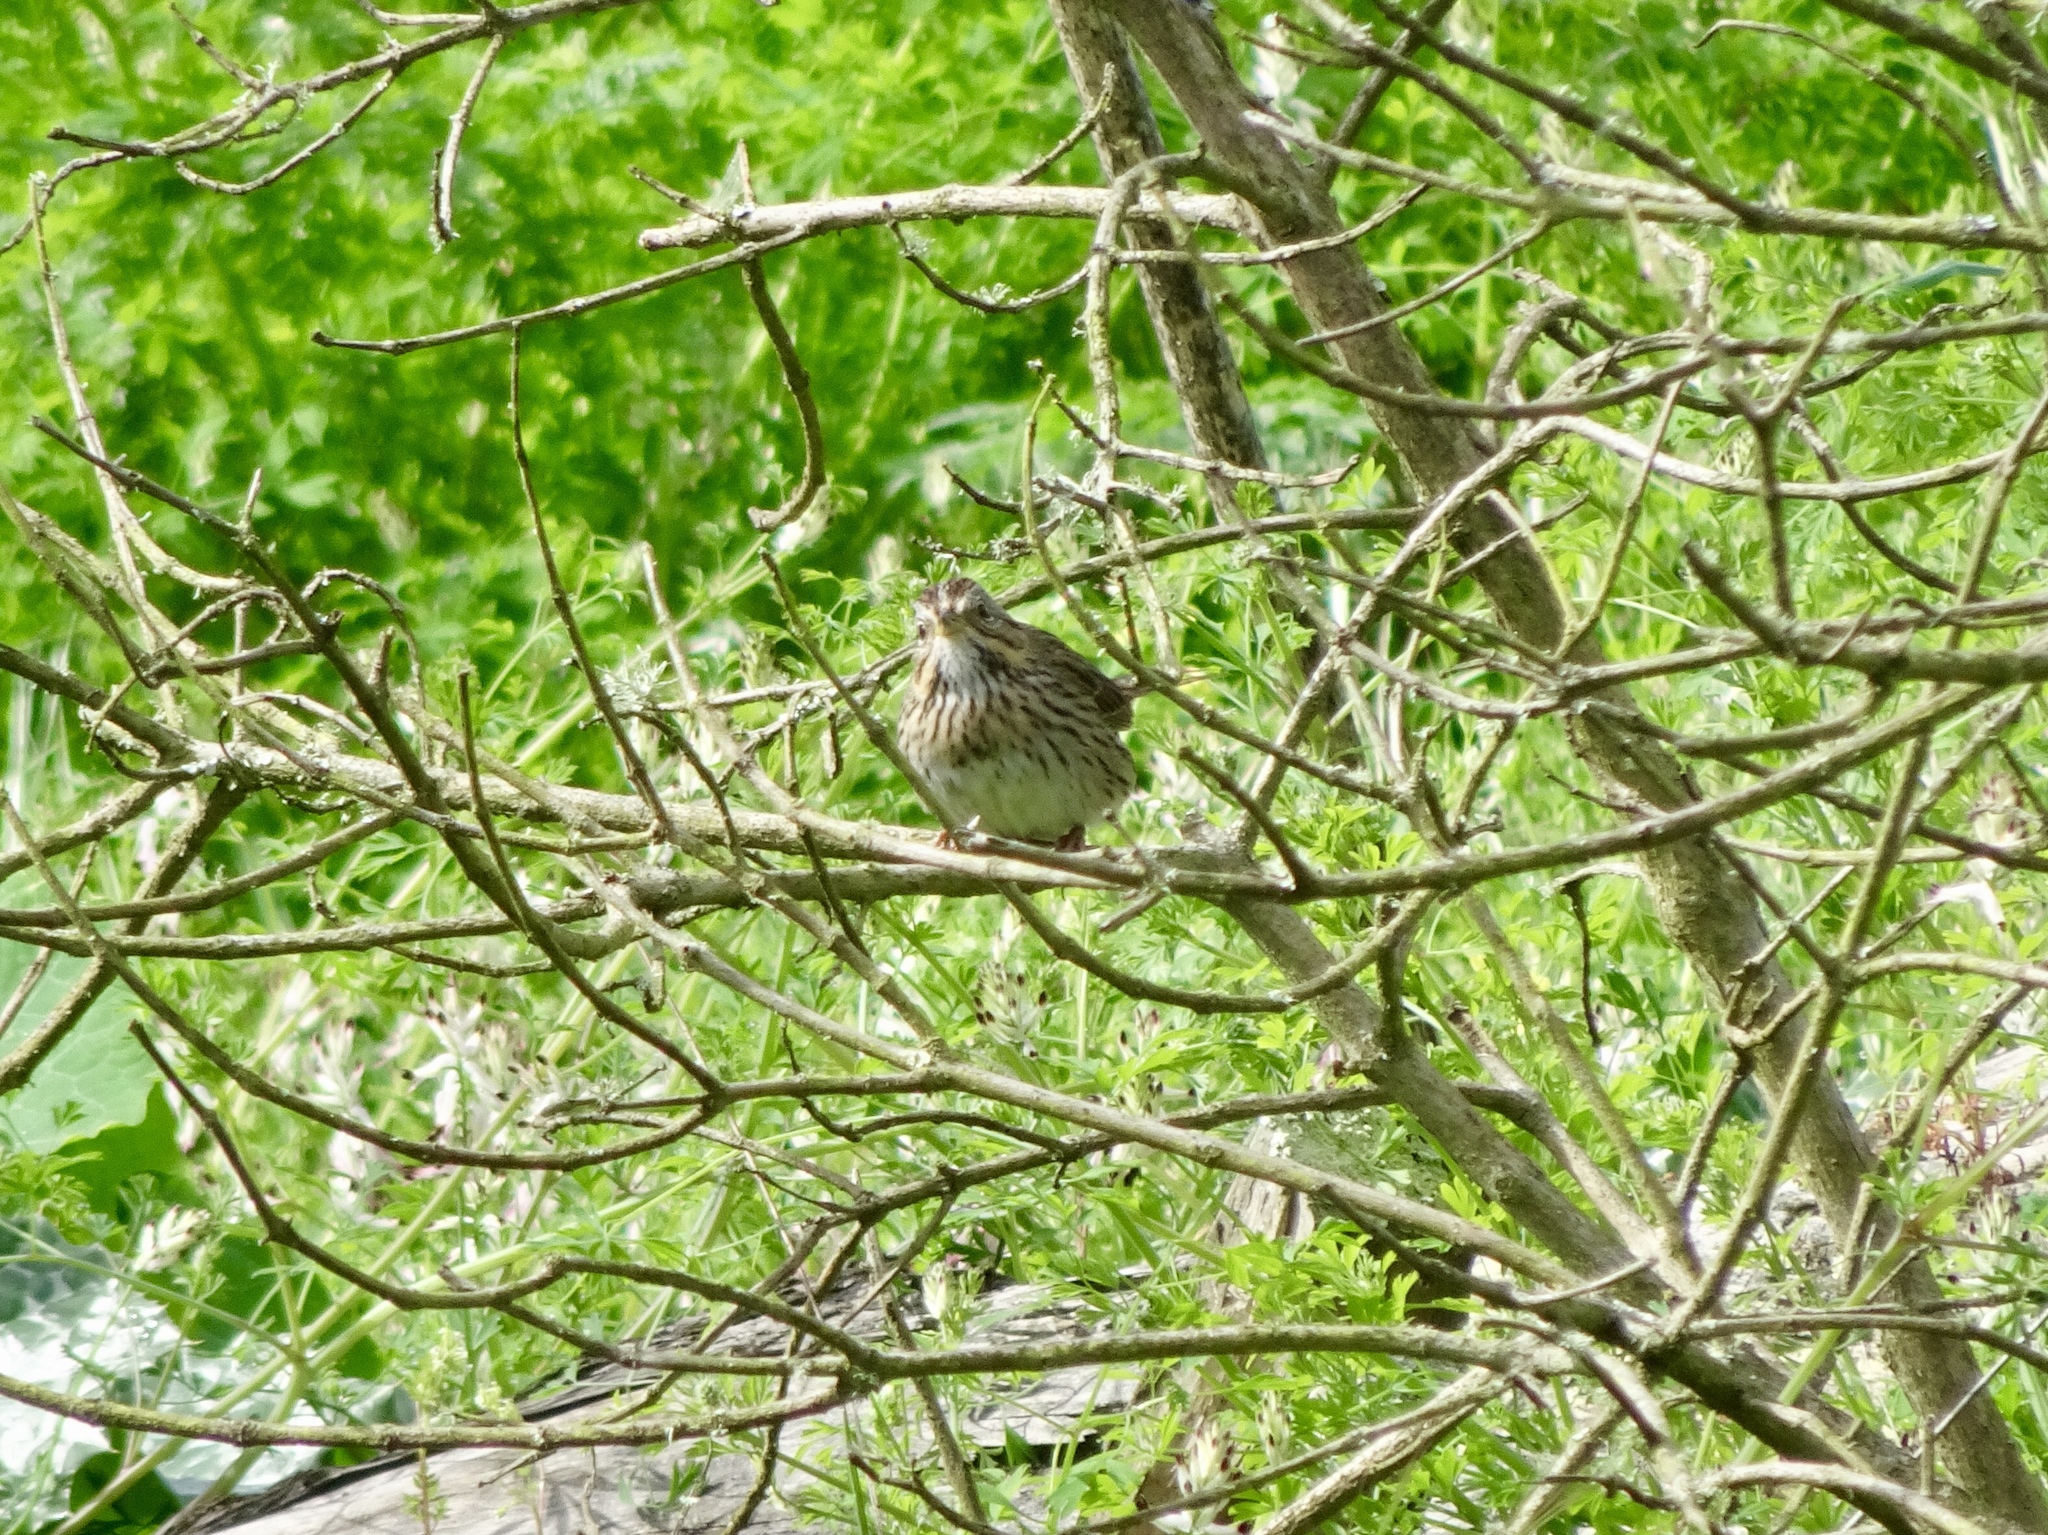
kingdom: Animalia
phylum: Chordata
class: Aves
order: Passeriformes
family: Passerellidae
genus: Melospiza
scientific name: Melospiza lincolnii
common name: Lincoln's sparrow
